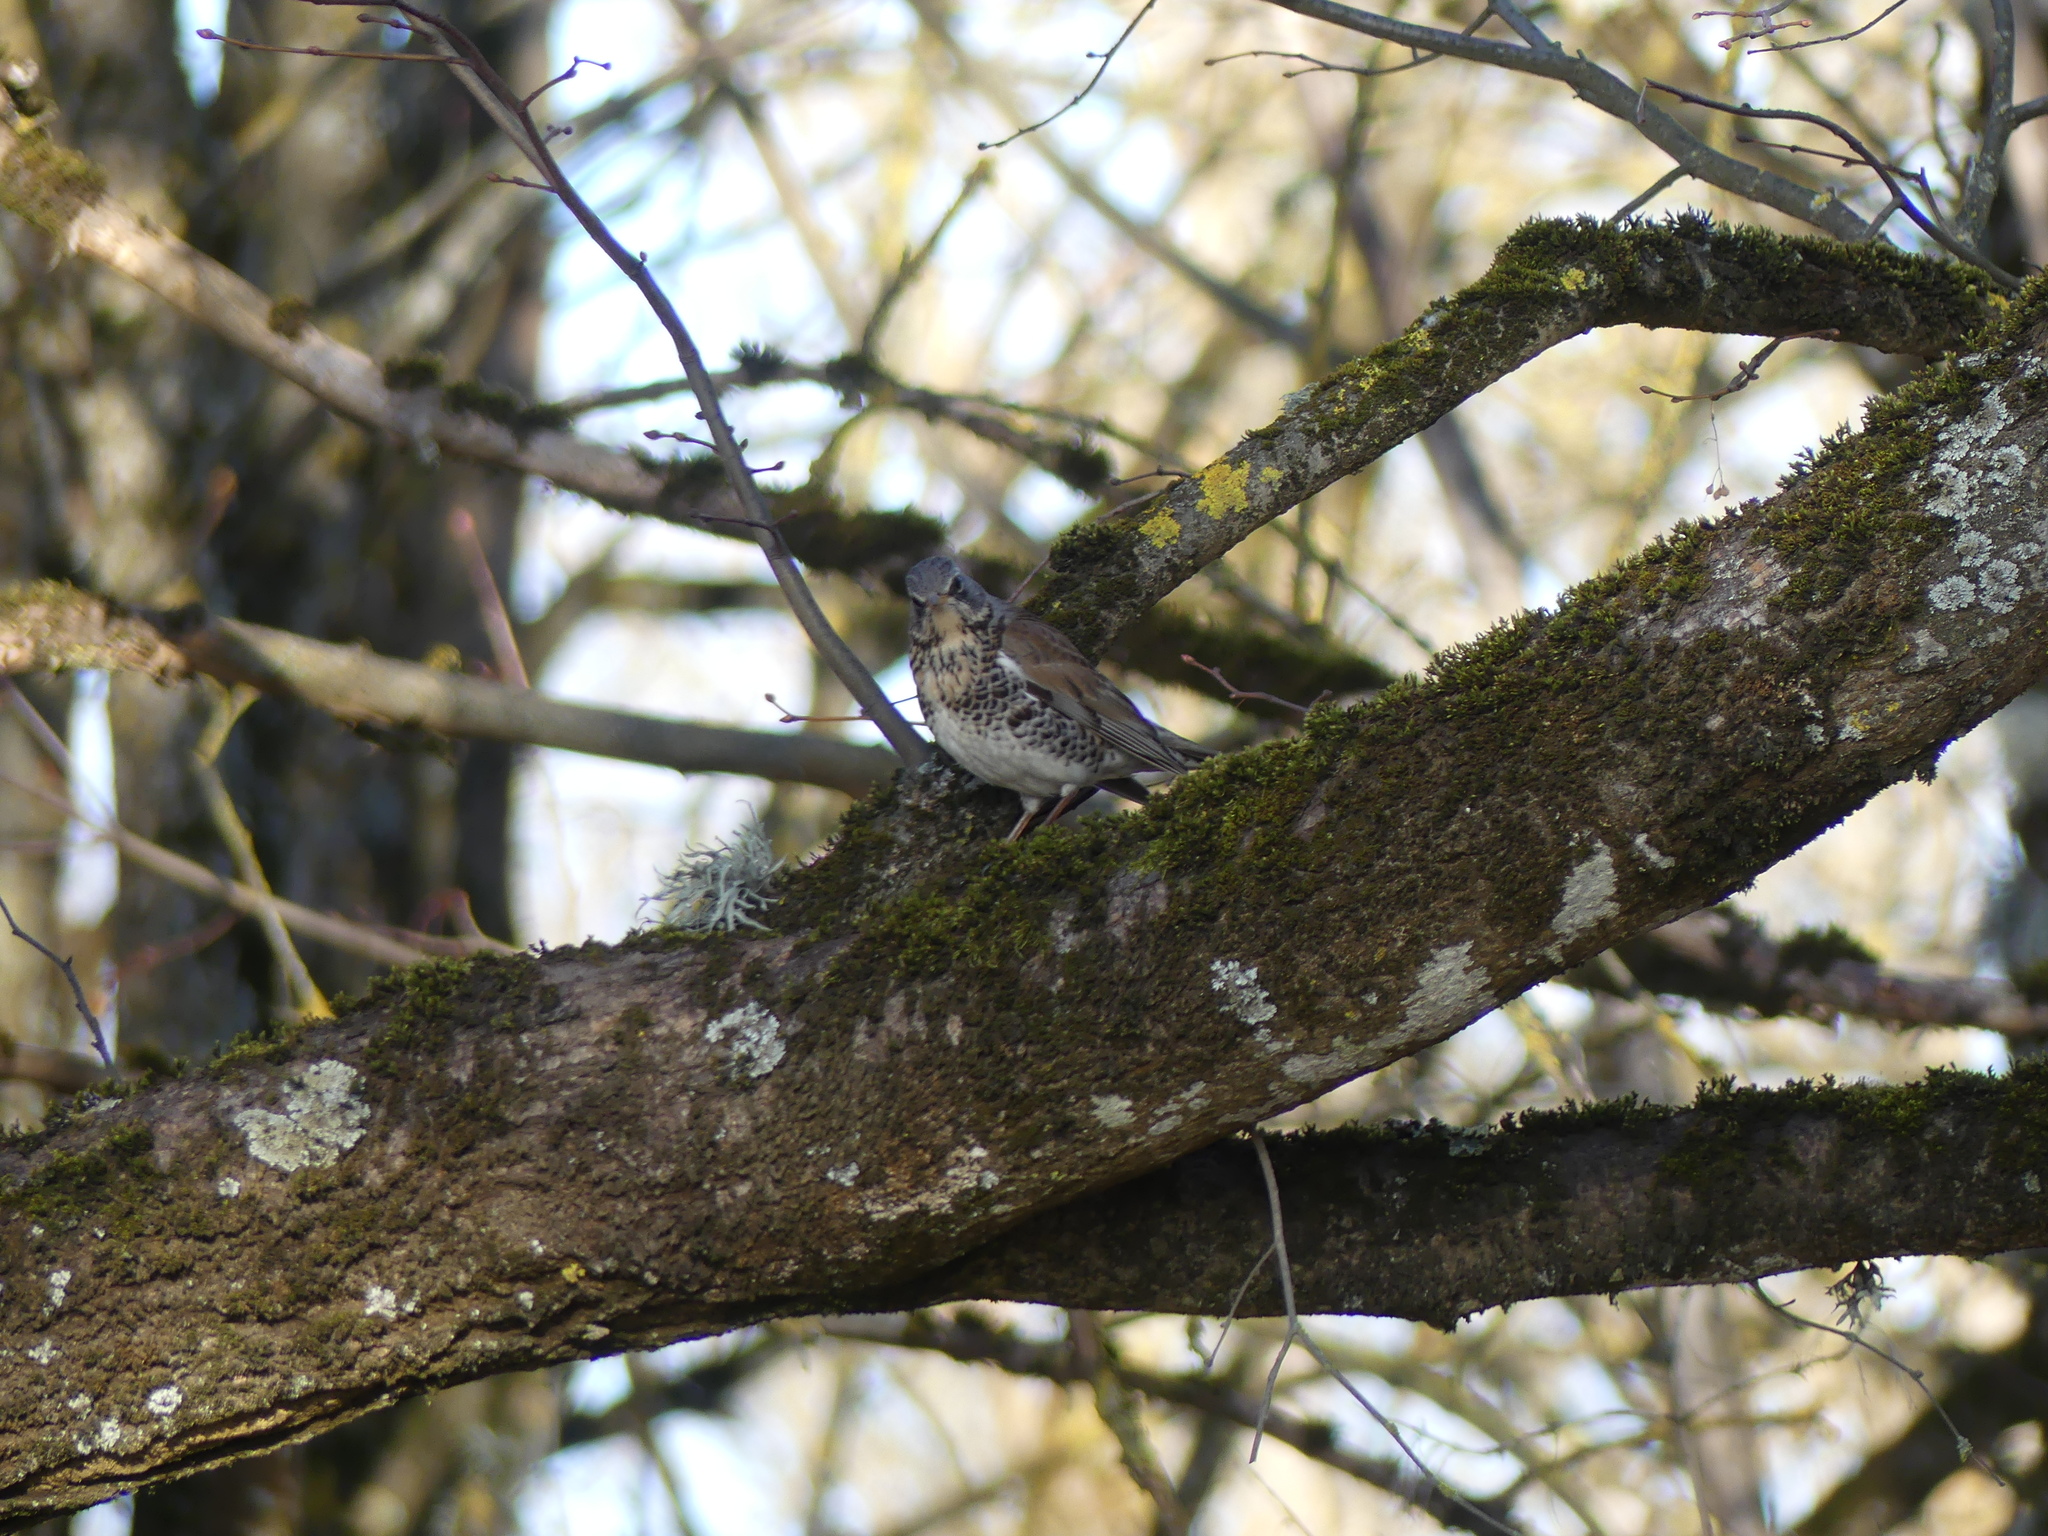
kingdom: Animalia
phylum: Chordata
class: Aves
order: Passeriformes
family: Turdidae
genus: Turdus
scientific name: Turdus pilaris
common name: Fieldfare
